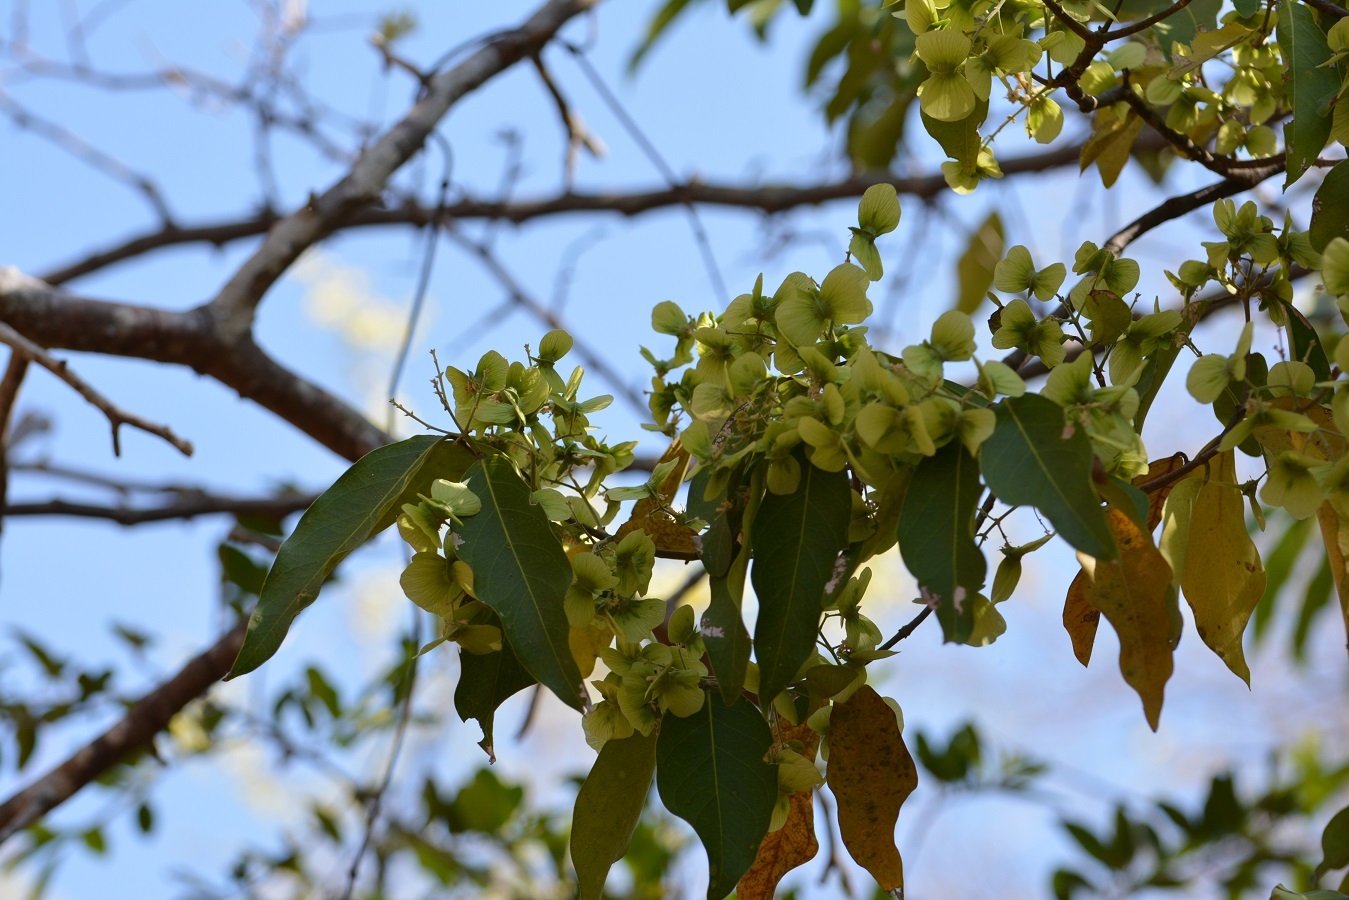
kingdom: Plantae
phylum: Tracheophyta
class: Magnoliopsida
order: Malpighiales
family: Malpighiaceae
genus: Psychopterys
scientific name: Psychopterys multiflora
